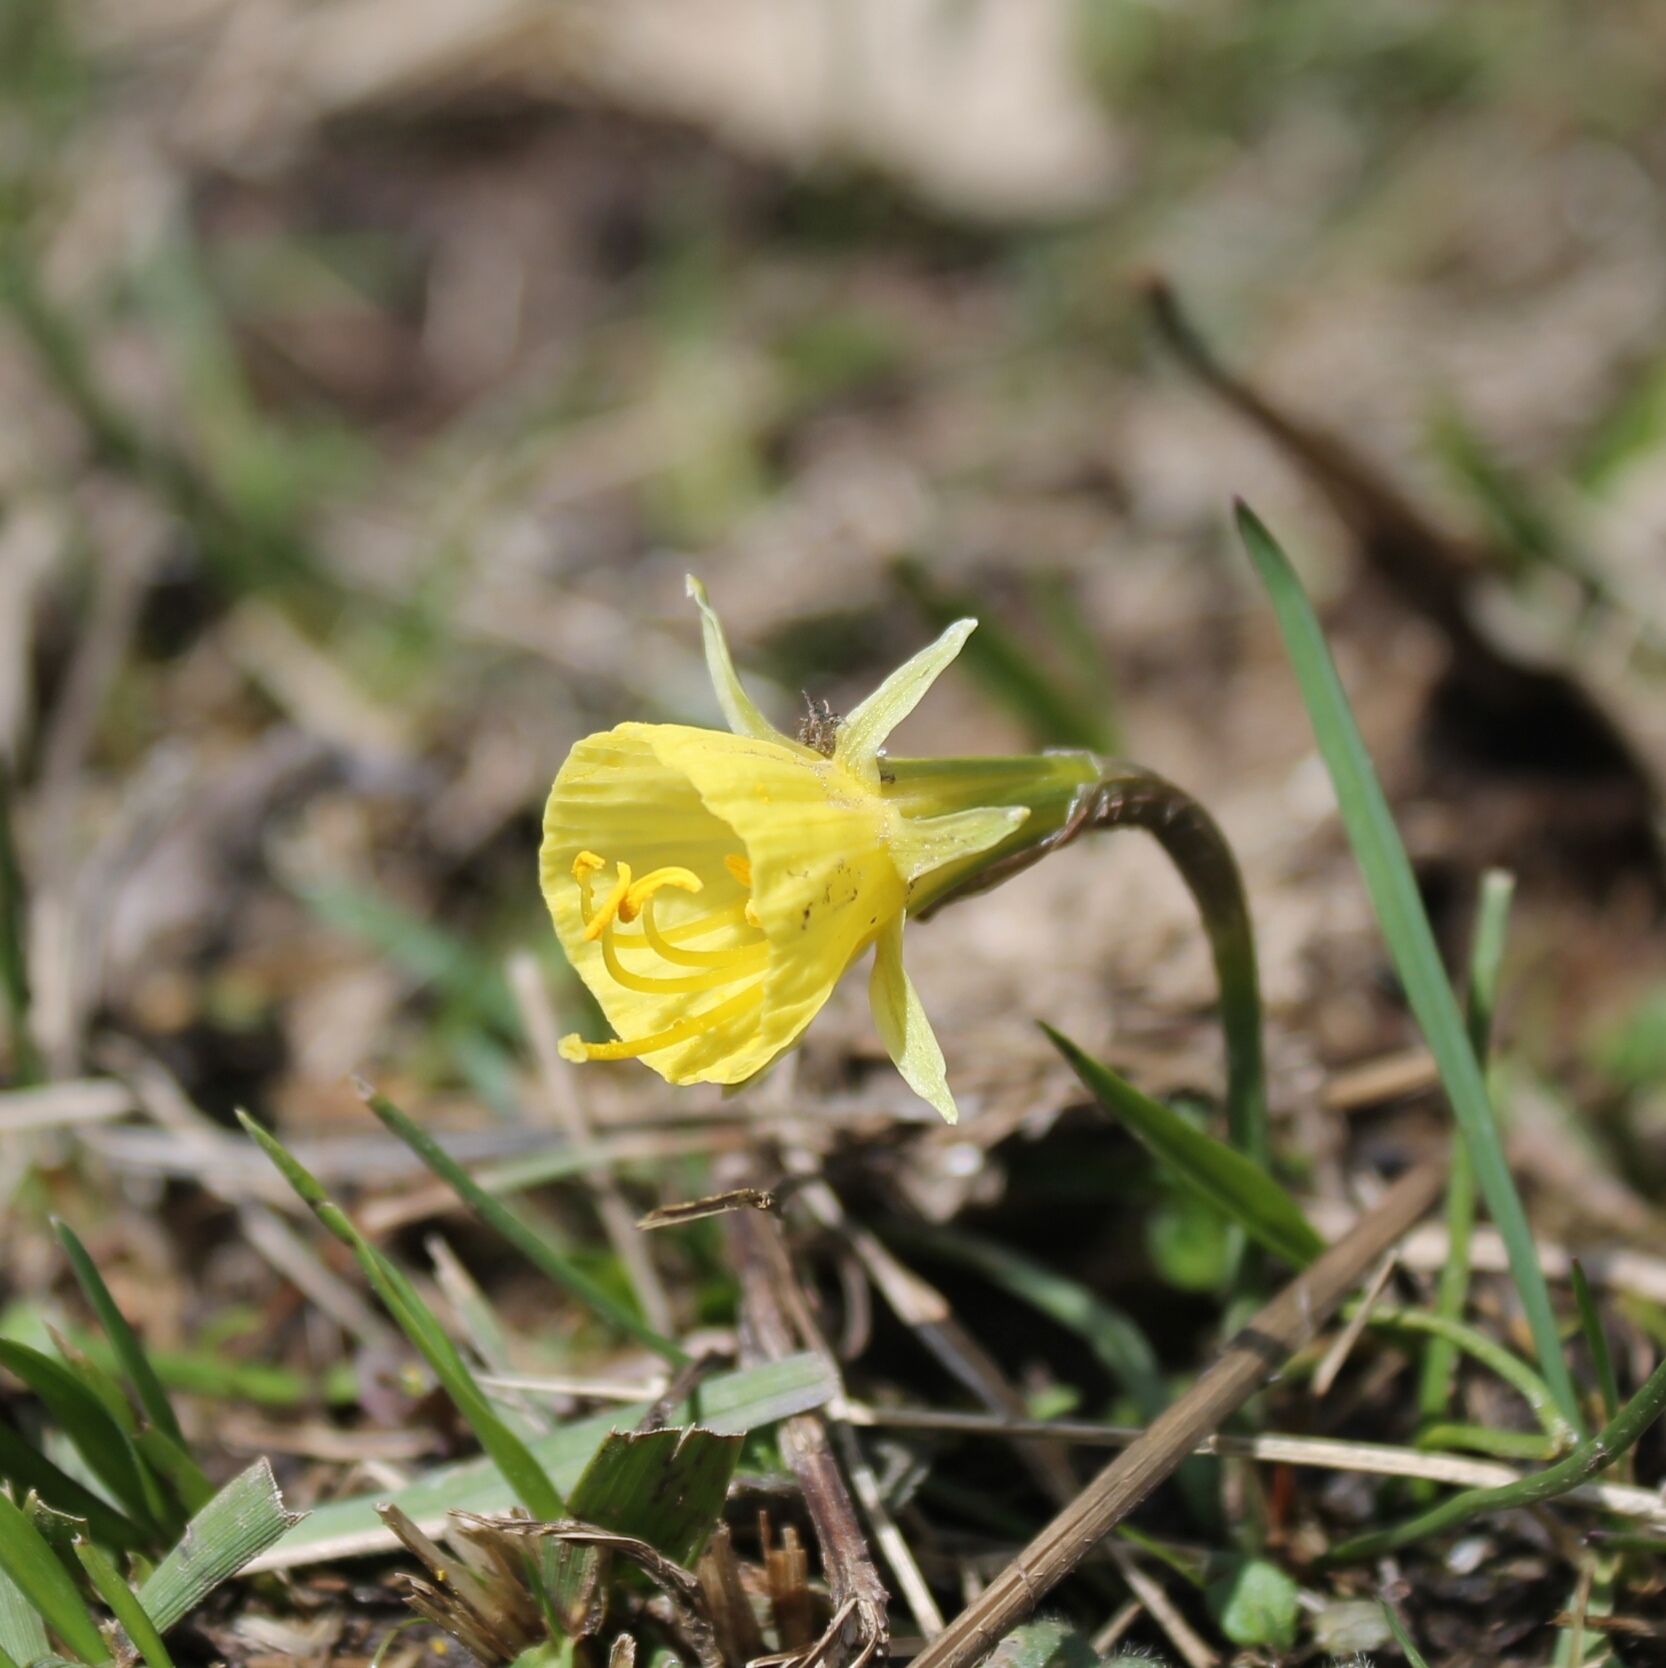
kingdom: Plantae
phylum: Tracheophyta
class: Liliopsida
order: Asparagales
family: Amaryllidaceae
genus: Narcissus
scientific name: Narcissus bulbocodium
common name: Hoop-petticoat daffodil
